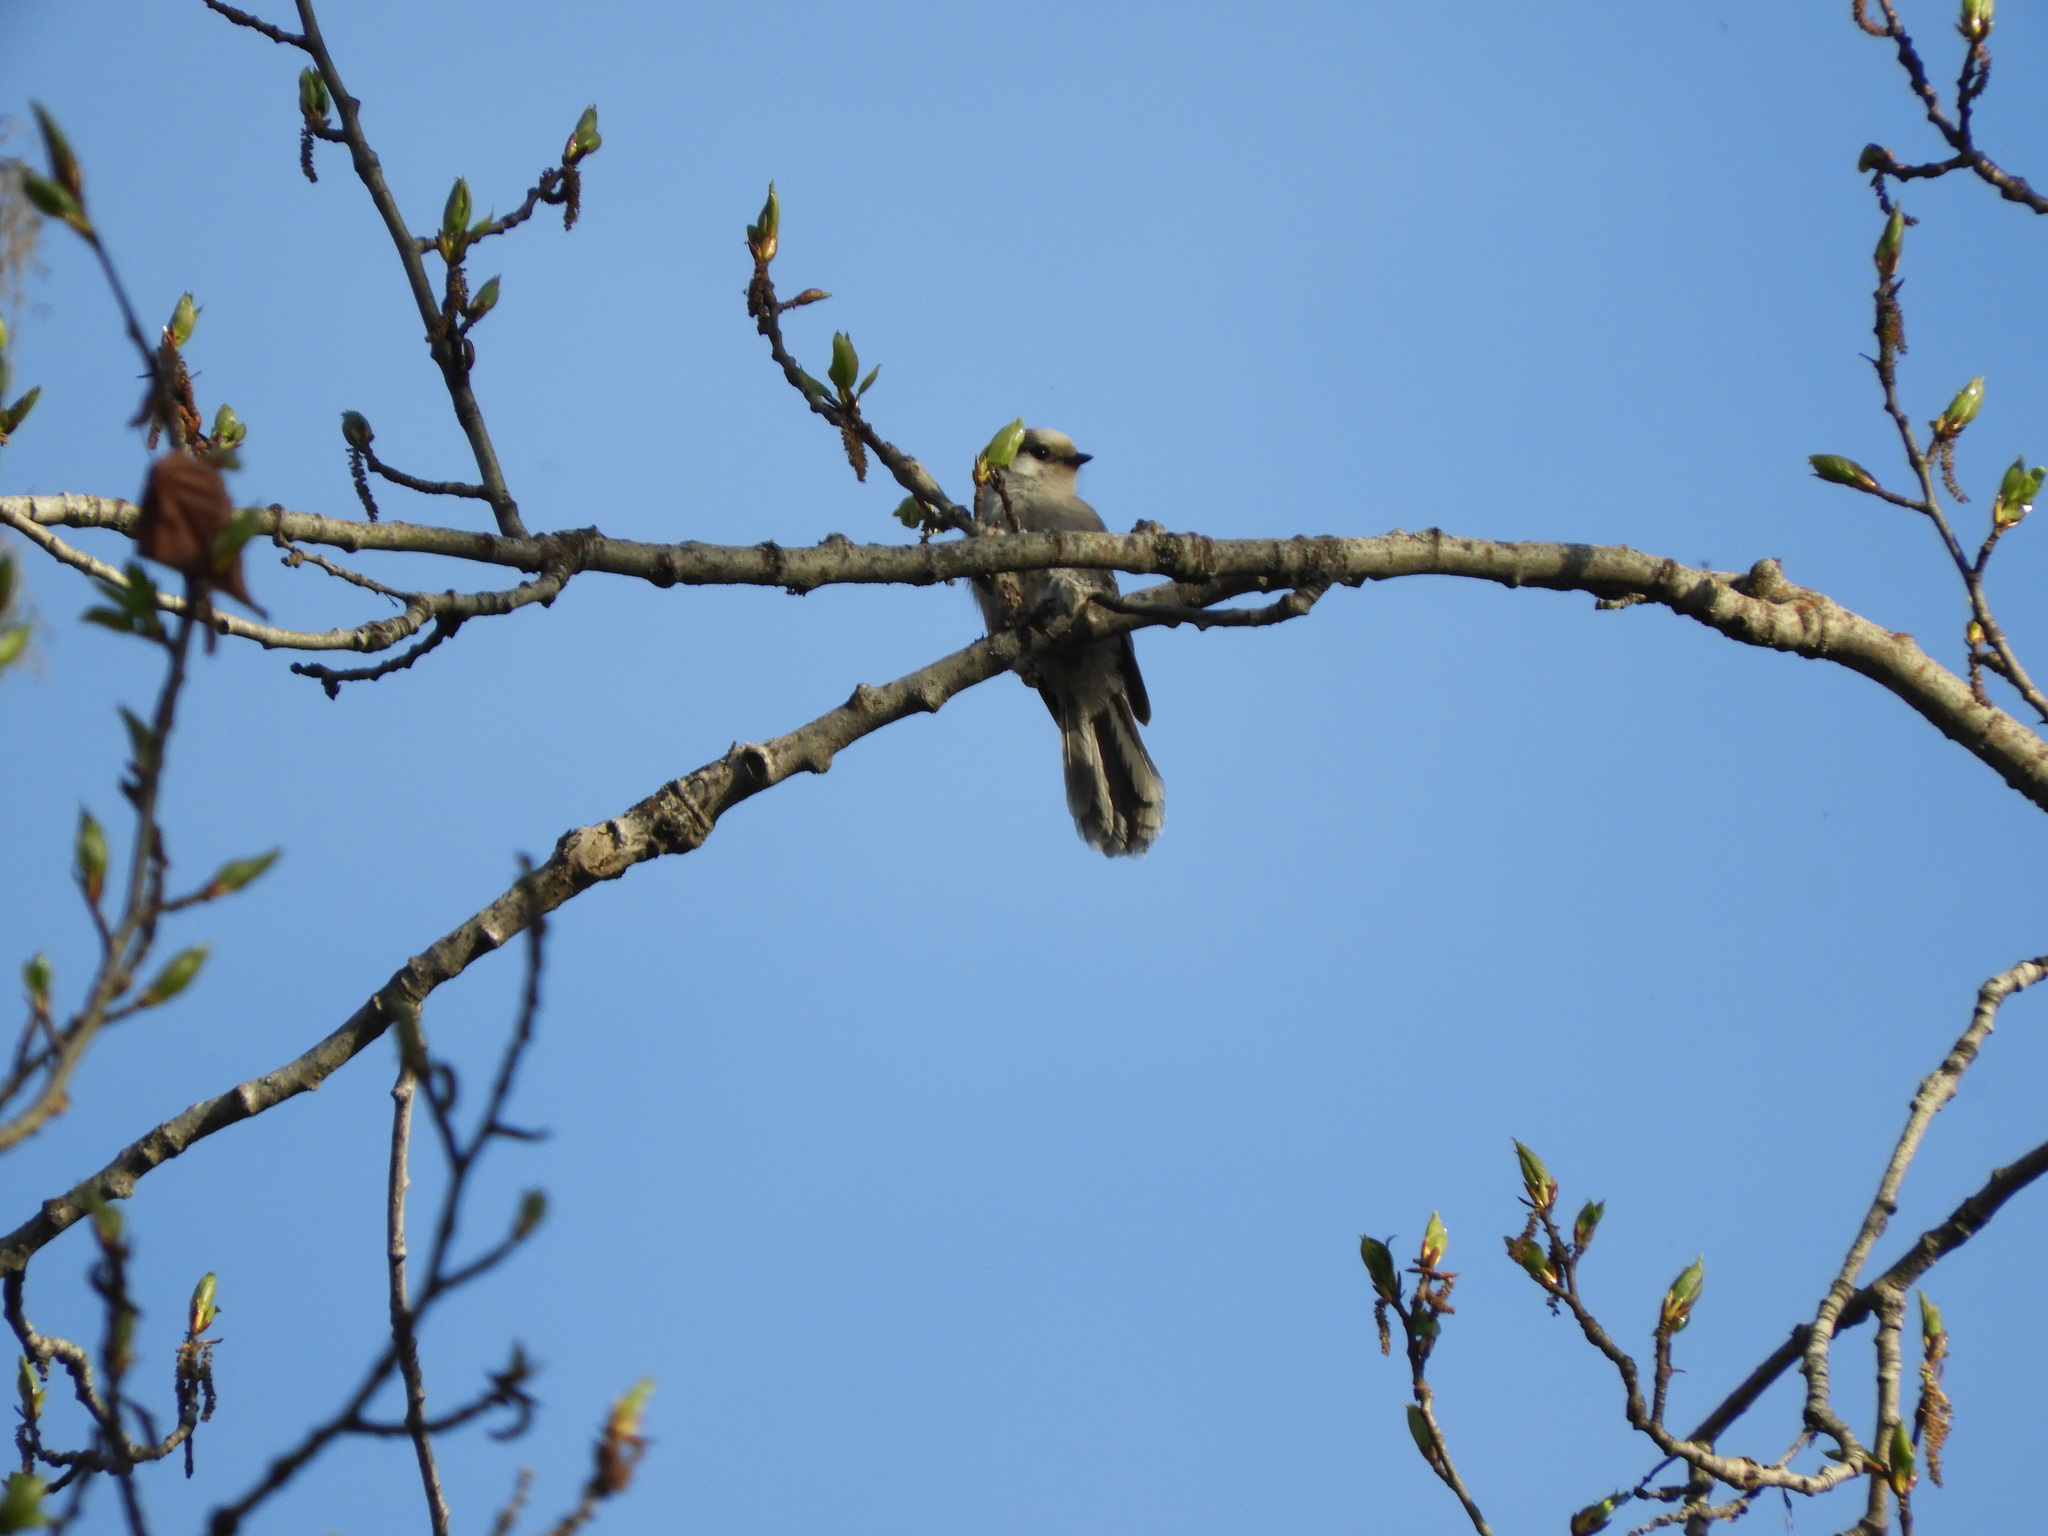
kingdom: Animalia
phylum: Chordata
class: Aves
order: Passeriformes
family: Corvidae
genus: Perisoreus
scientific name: Perisoreus canadensis
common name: Gray jay
